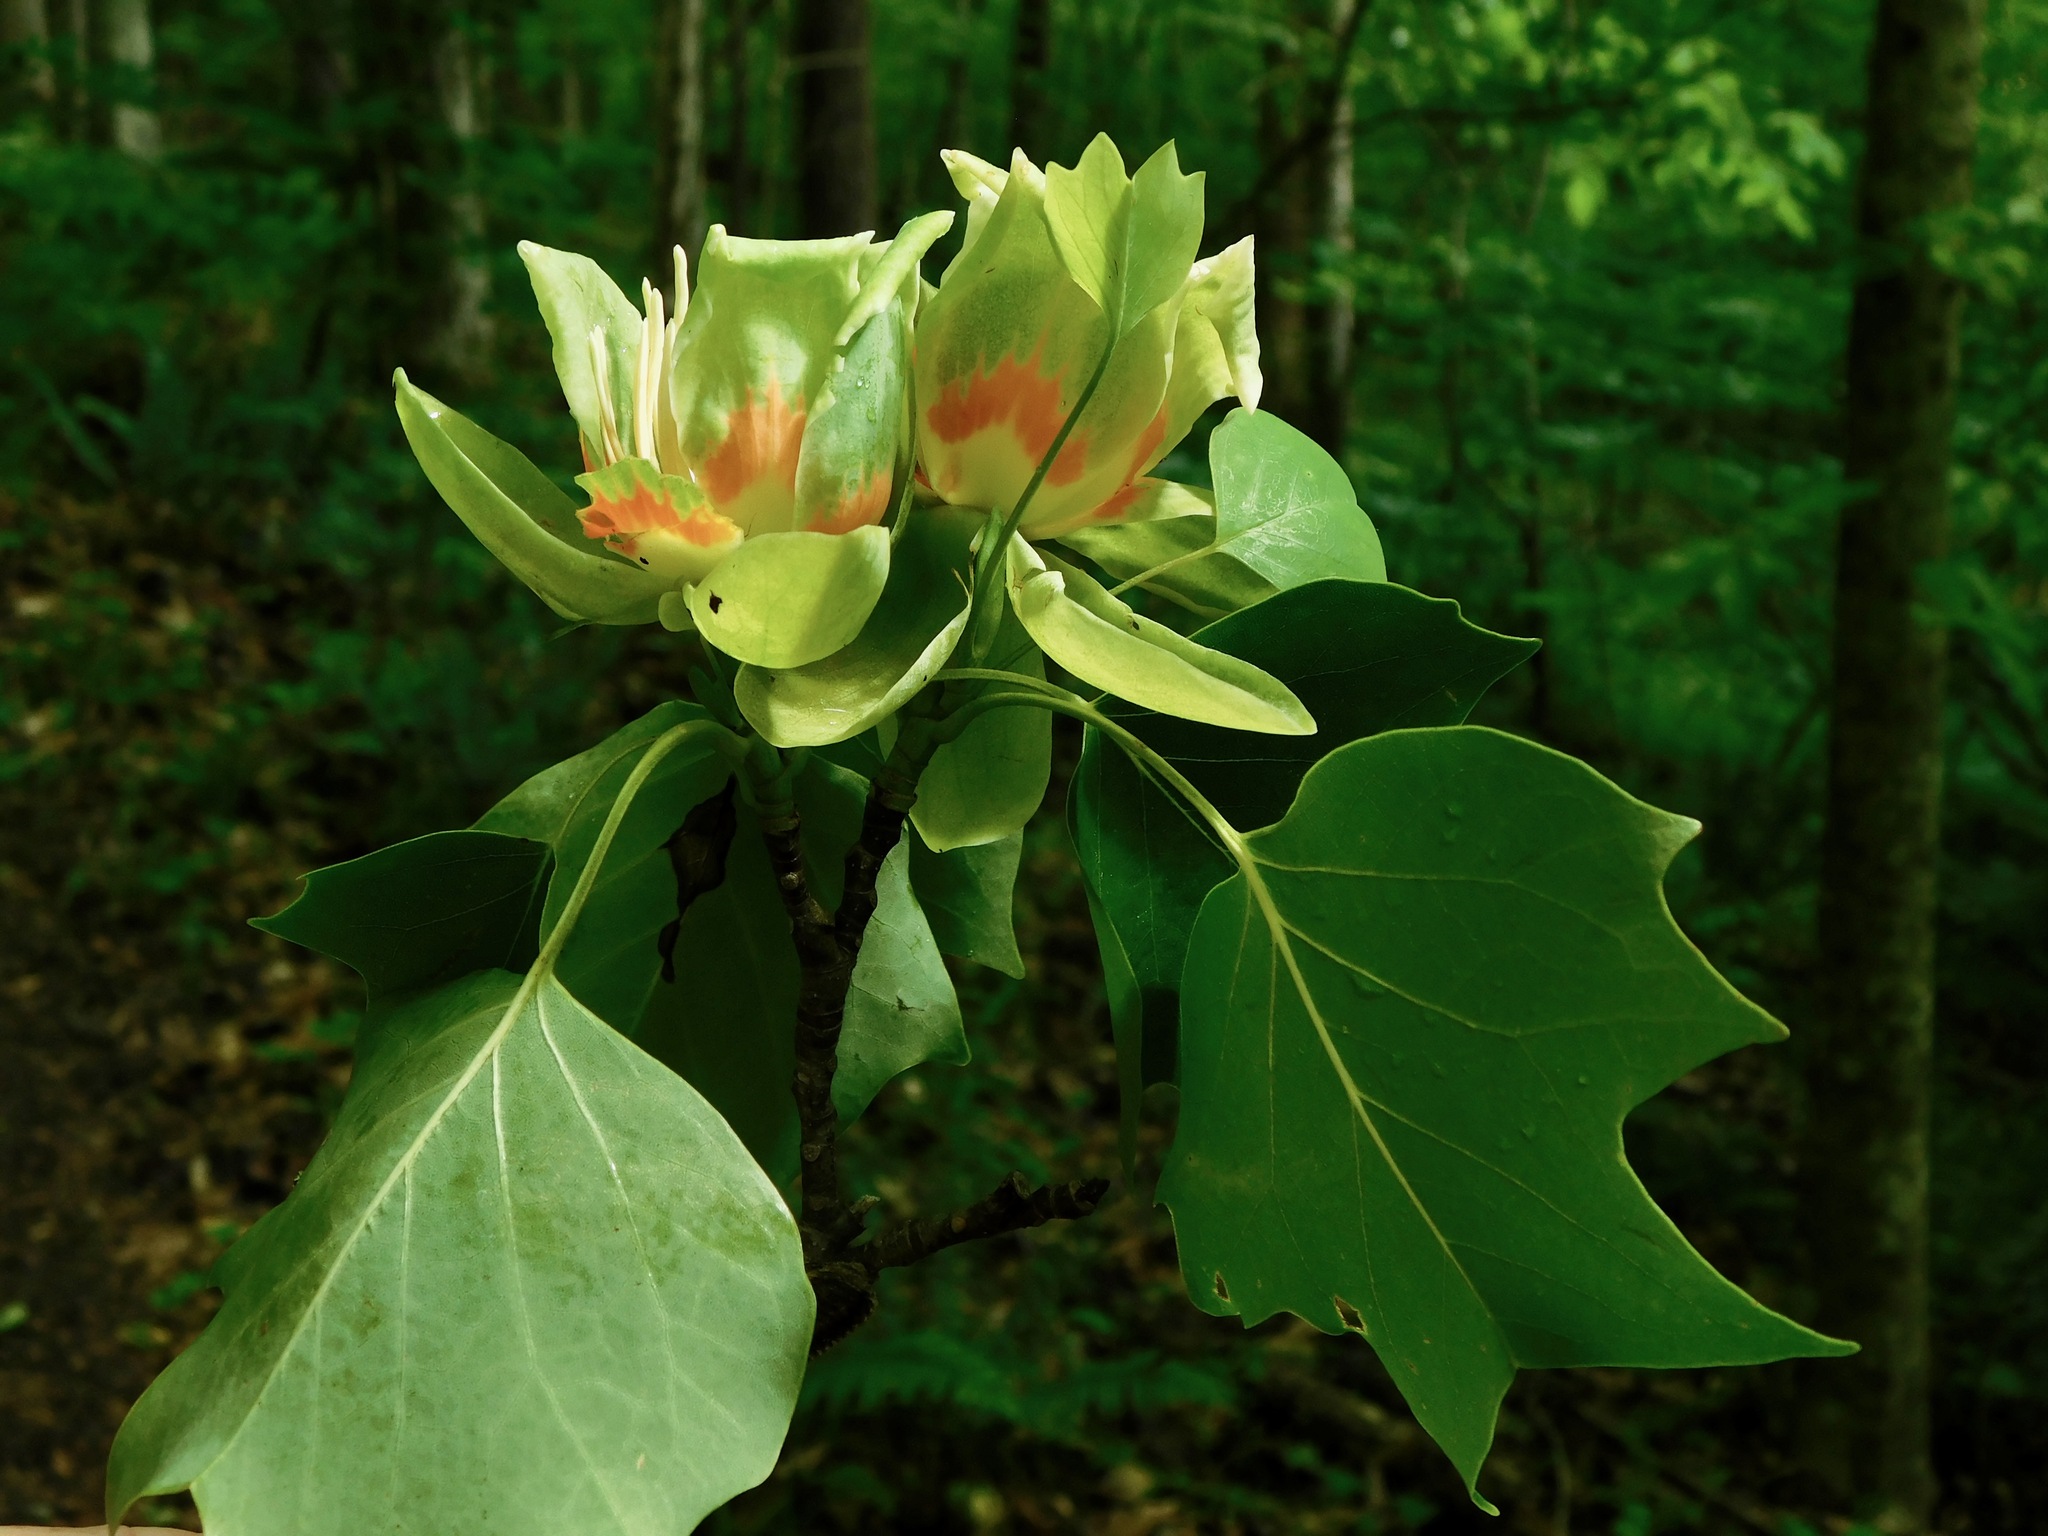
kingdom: Plantae
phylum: Tracheophyta
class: Magnoliopsida
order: Magnoliales
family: Magnoliaceae
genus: Liriodendron
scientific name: Liriodendron tulipifera
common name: Tulip tree
